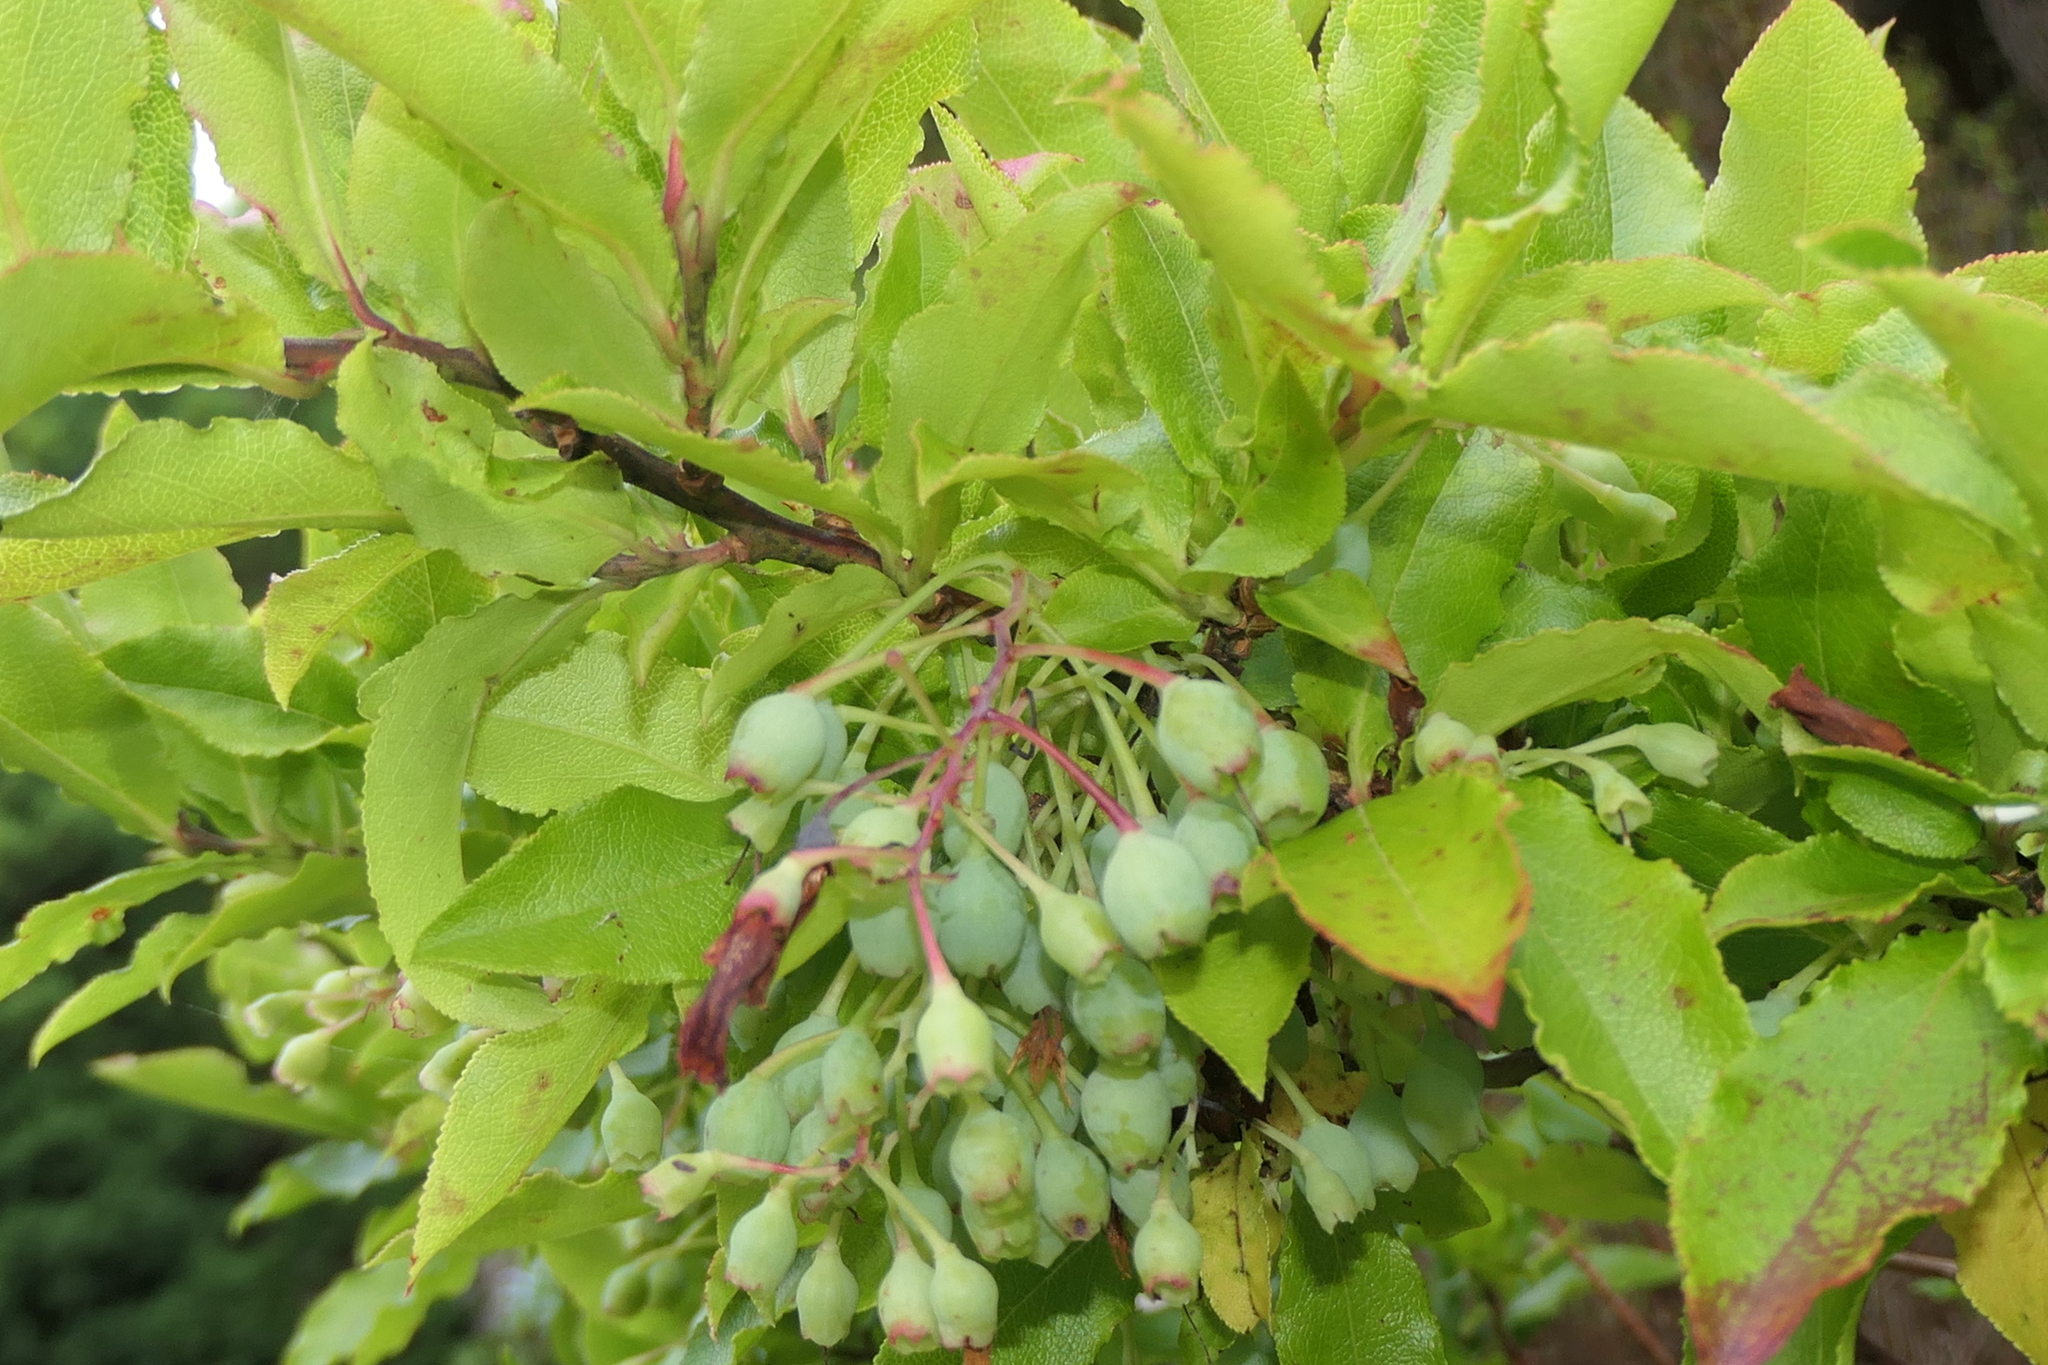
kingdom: Plantae
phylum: Tracheophyta
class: Magnoliopsida
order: Ericales
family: Ericaceae
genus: Vaccinium
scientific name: Vaccinium cylindraceum
